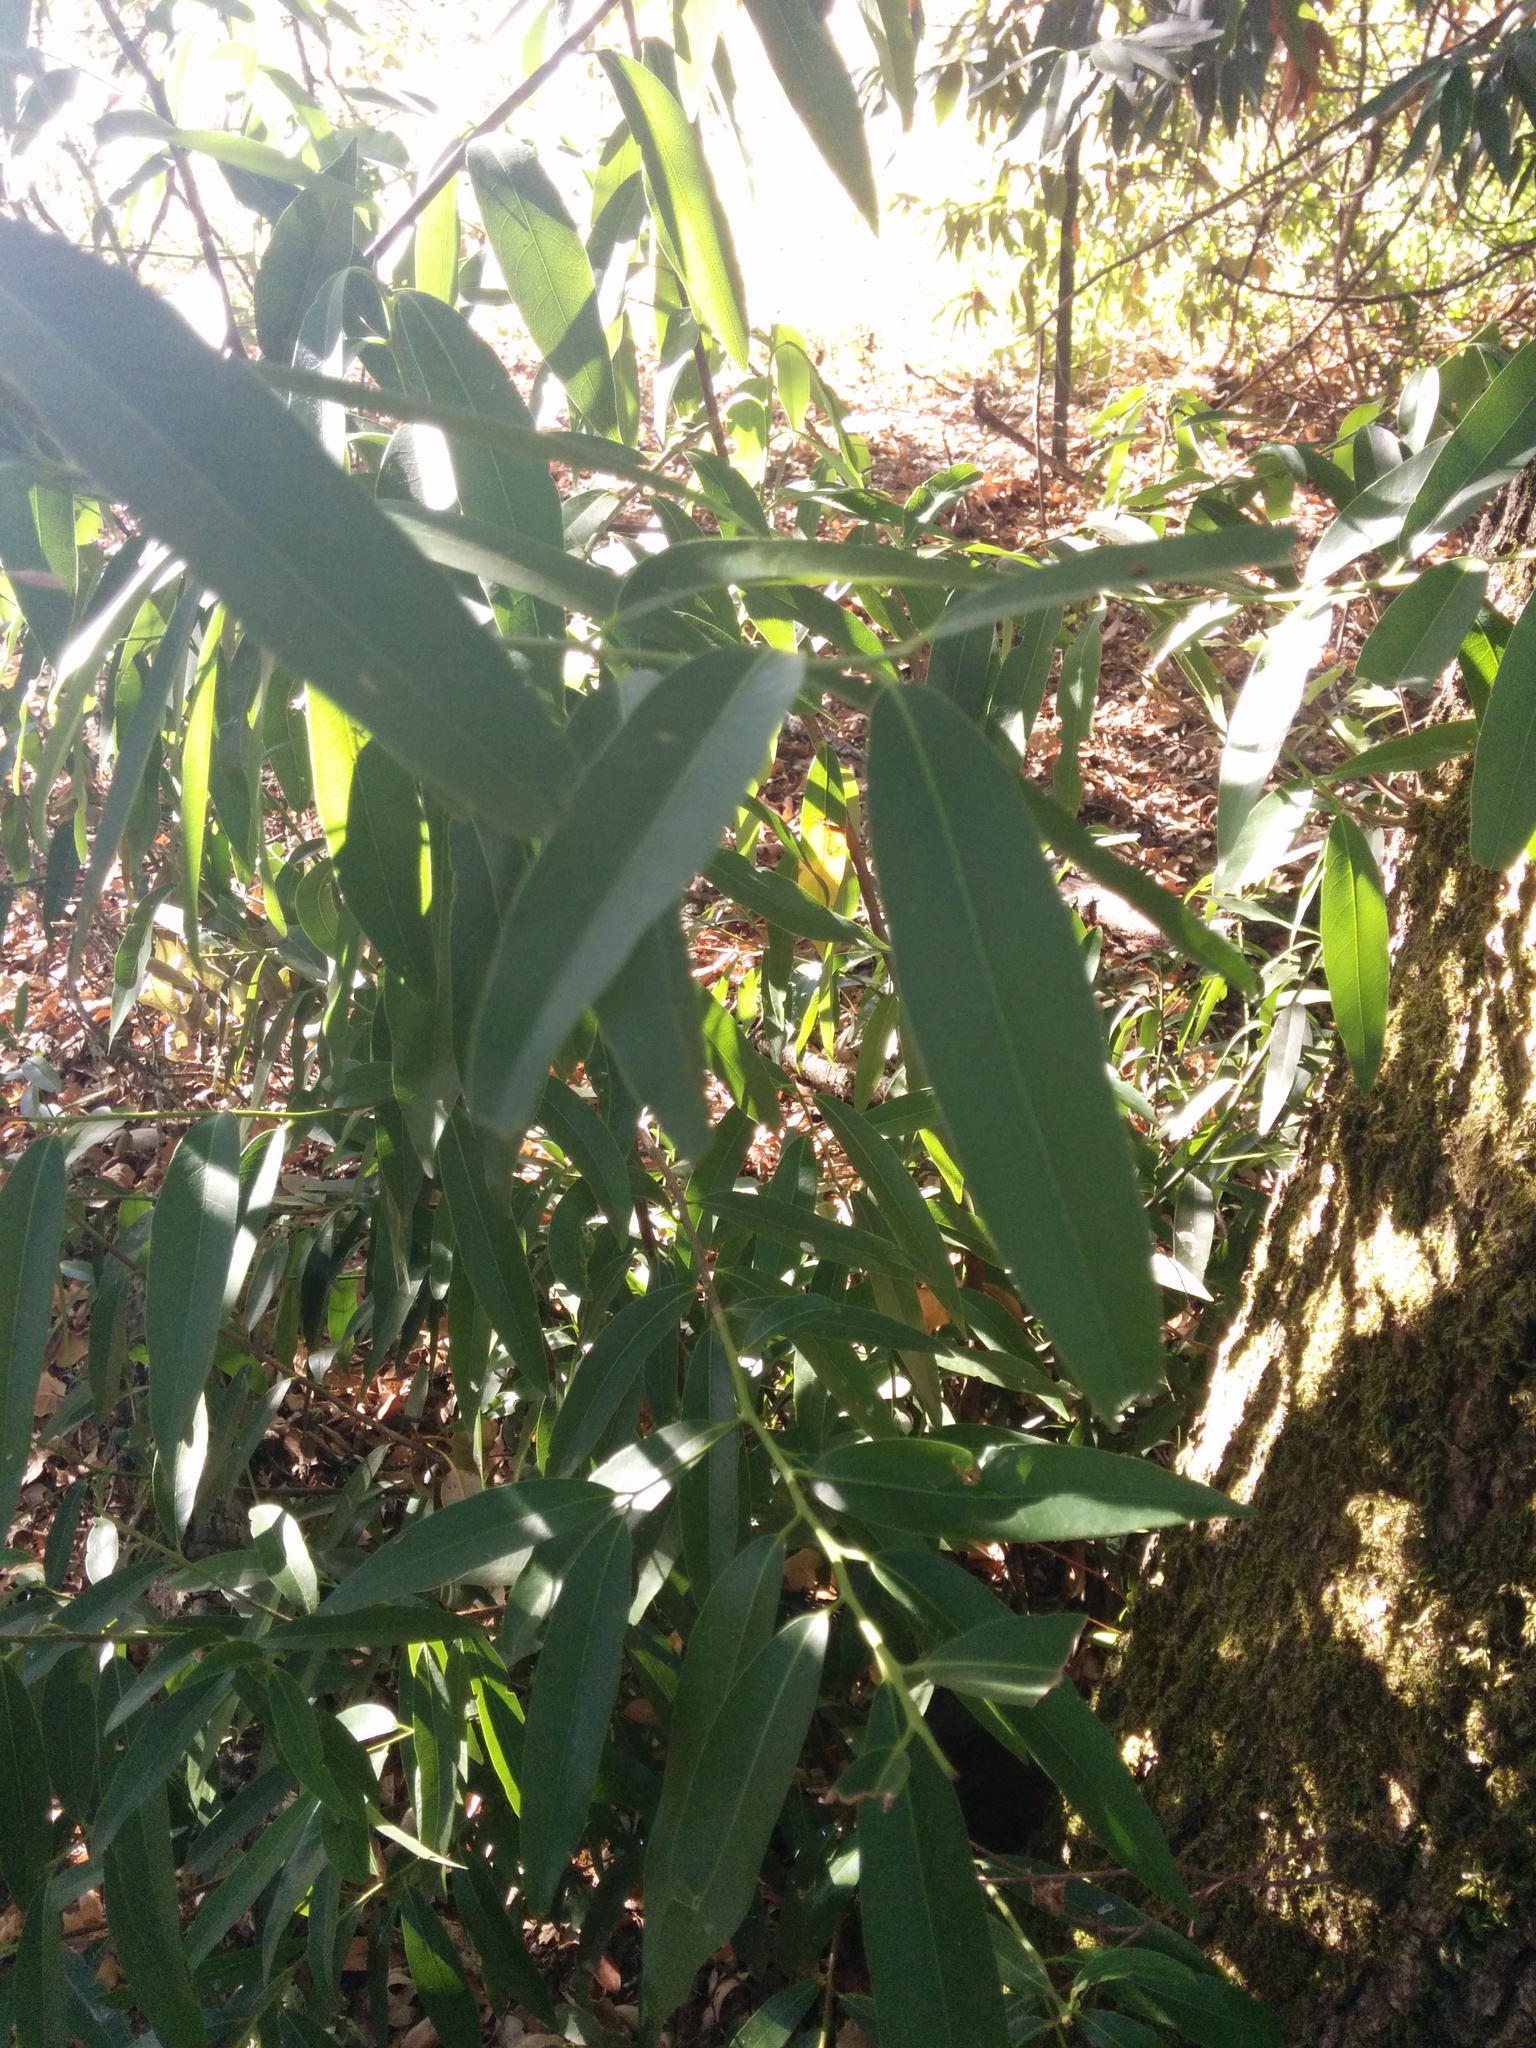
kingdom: Plantae
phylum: Tracheophyta
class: Magnoliopsida
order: Laurales
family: Lauraceae
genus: Umbellularia
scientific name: Umbellularia californica
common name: California bay
